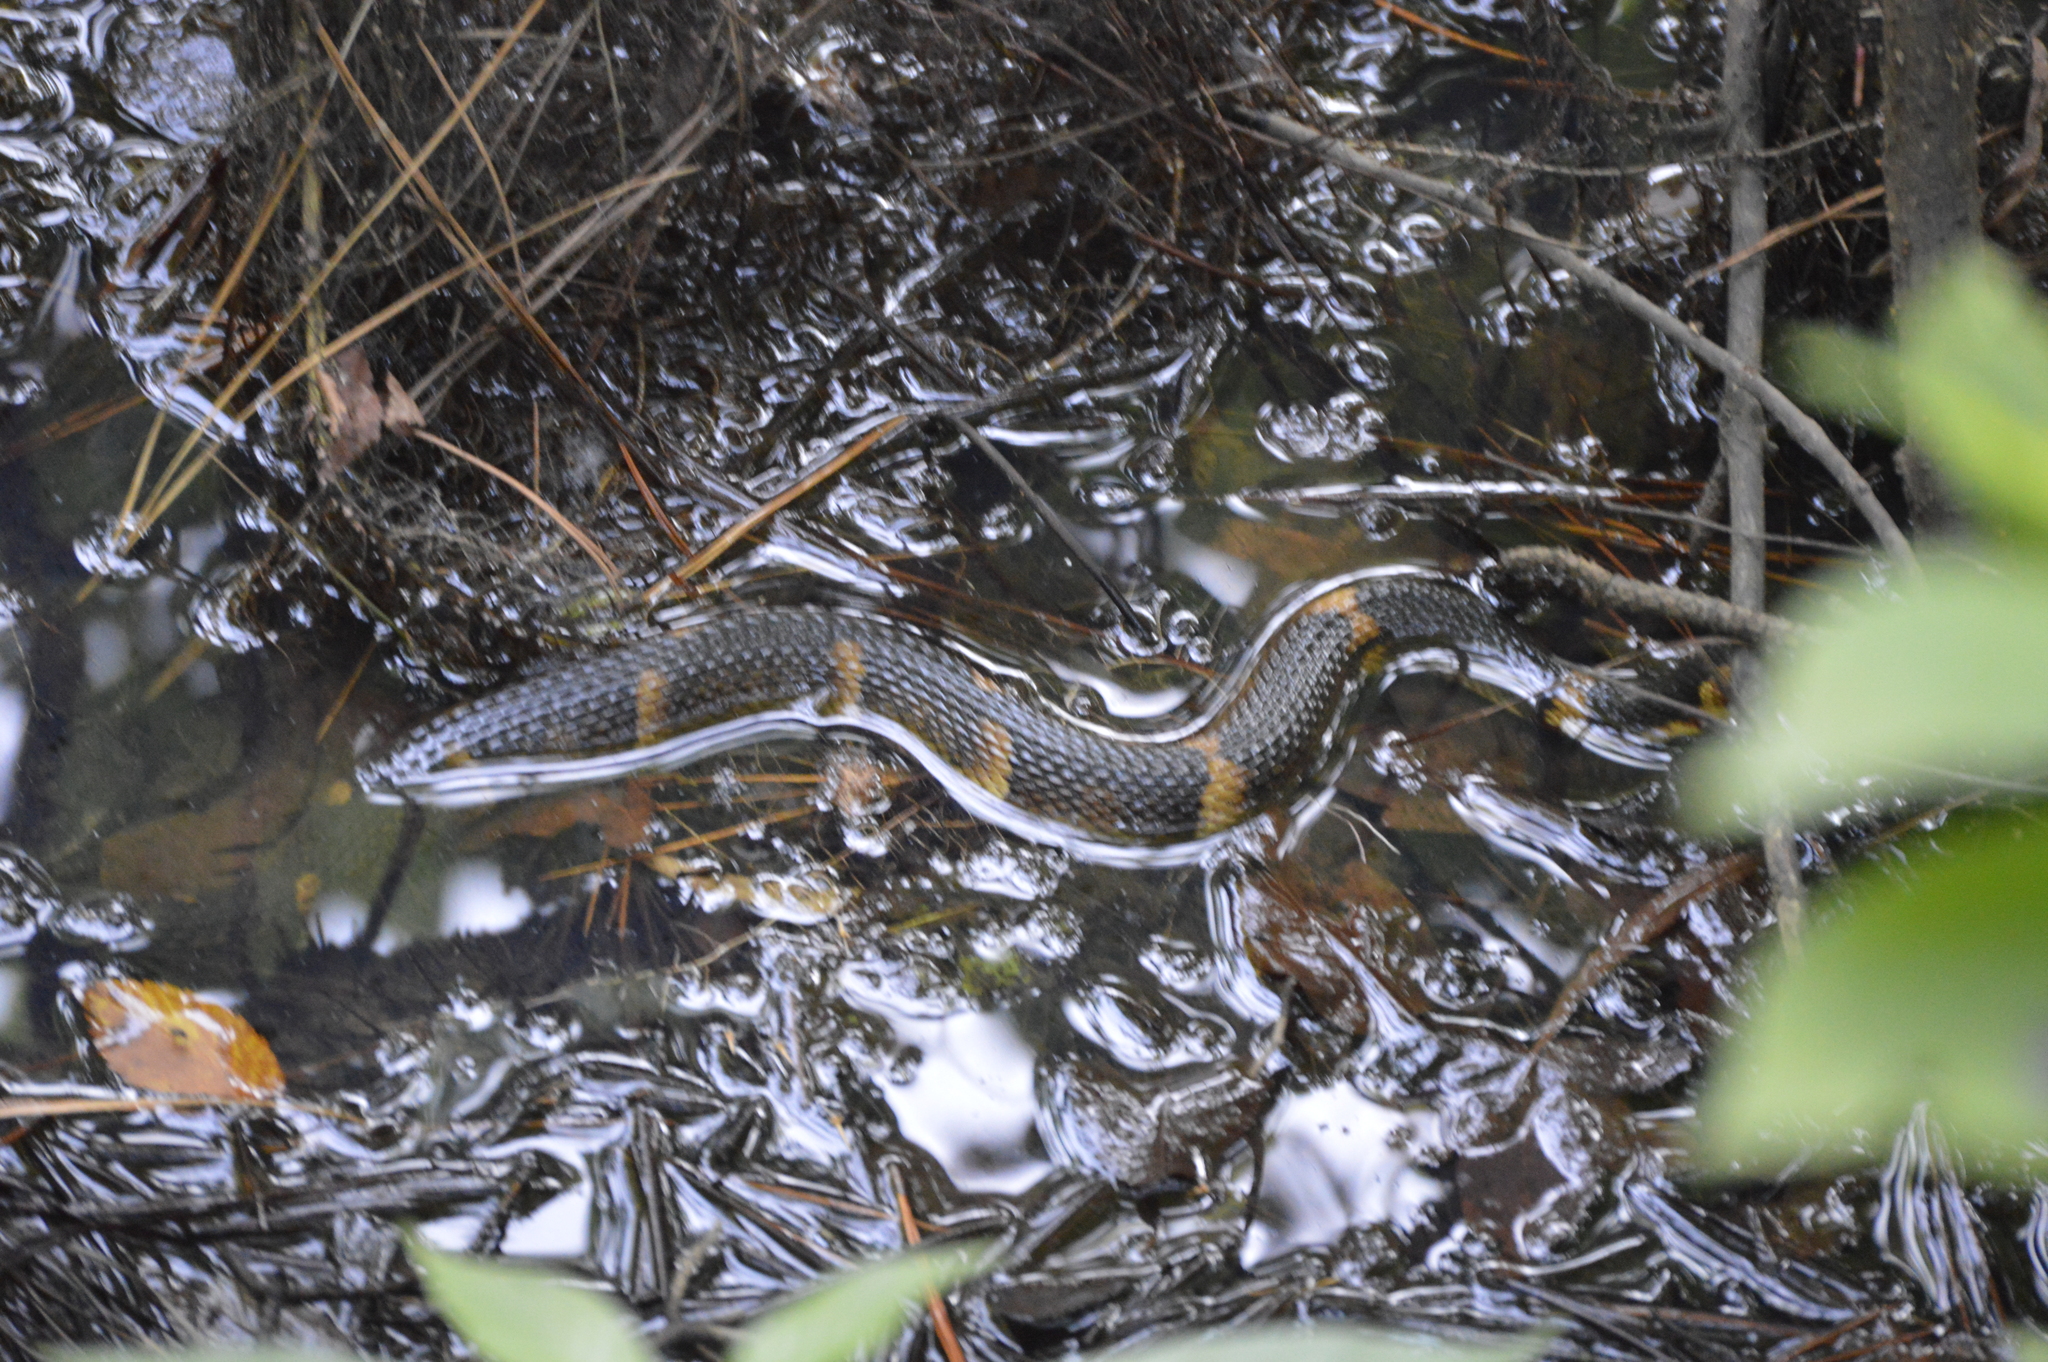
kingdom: Animalia
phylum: Chordata
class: Squamata
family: Colubridae
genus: Nerodia
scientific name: Nerodia fasciata
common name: Southern water snake
